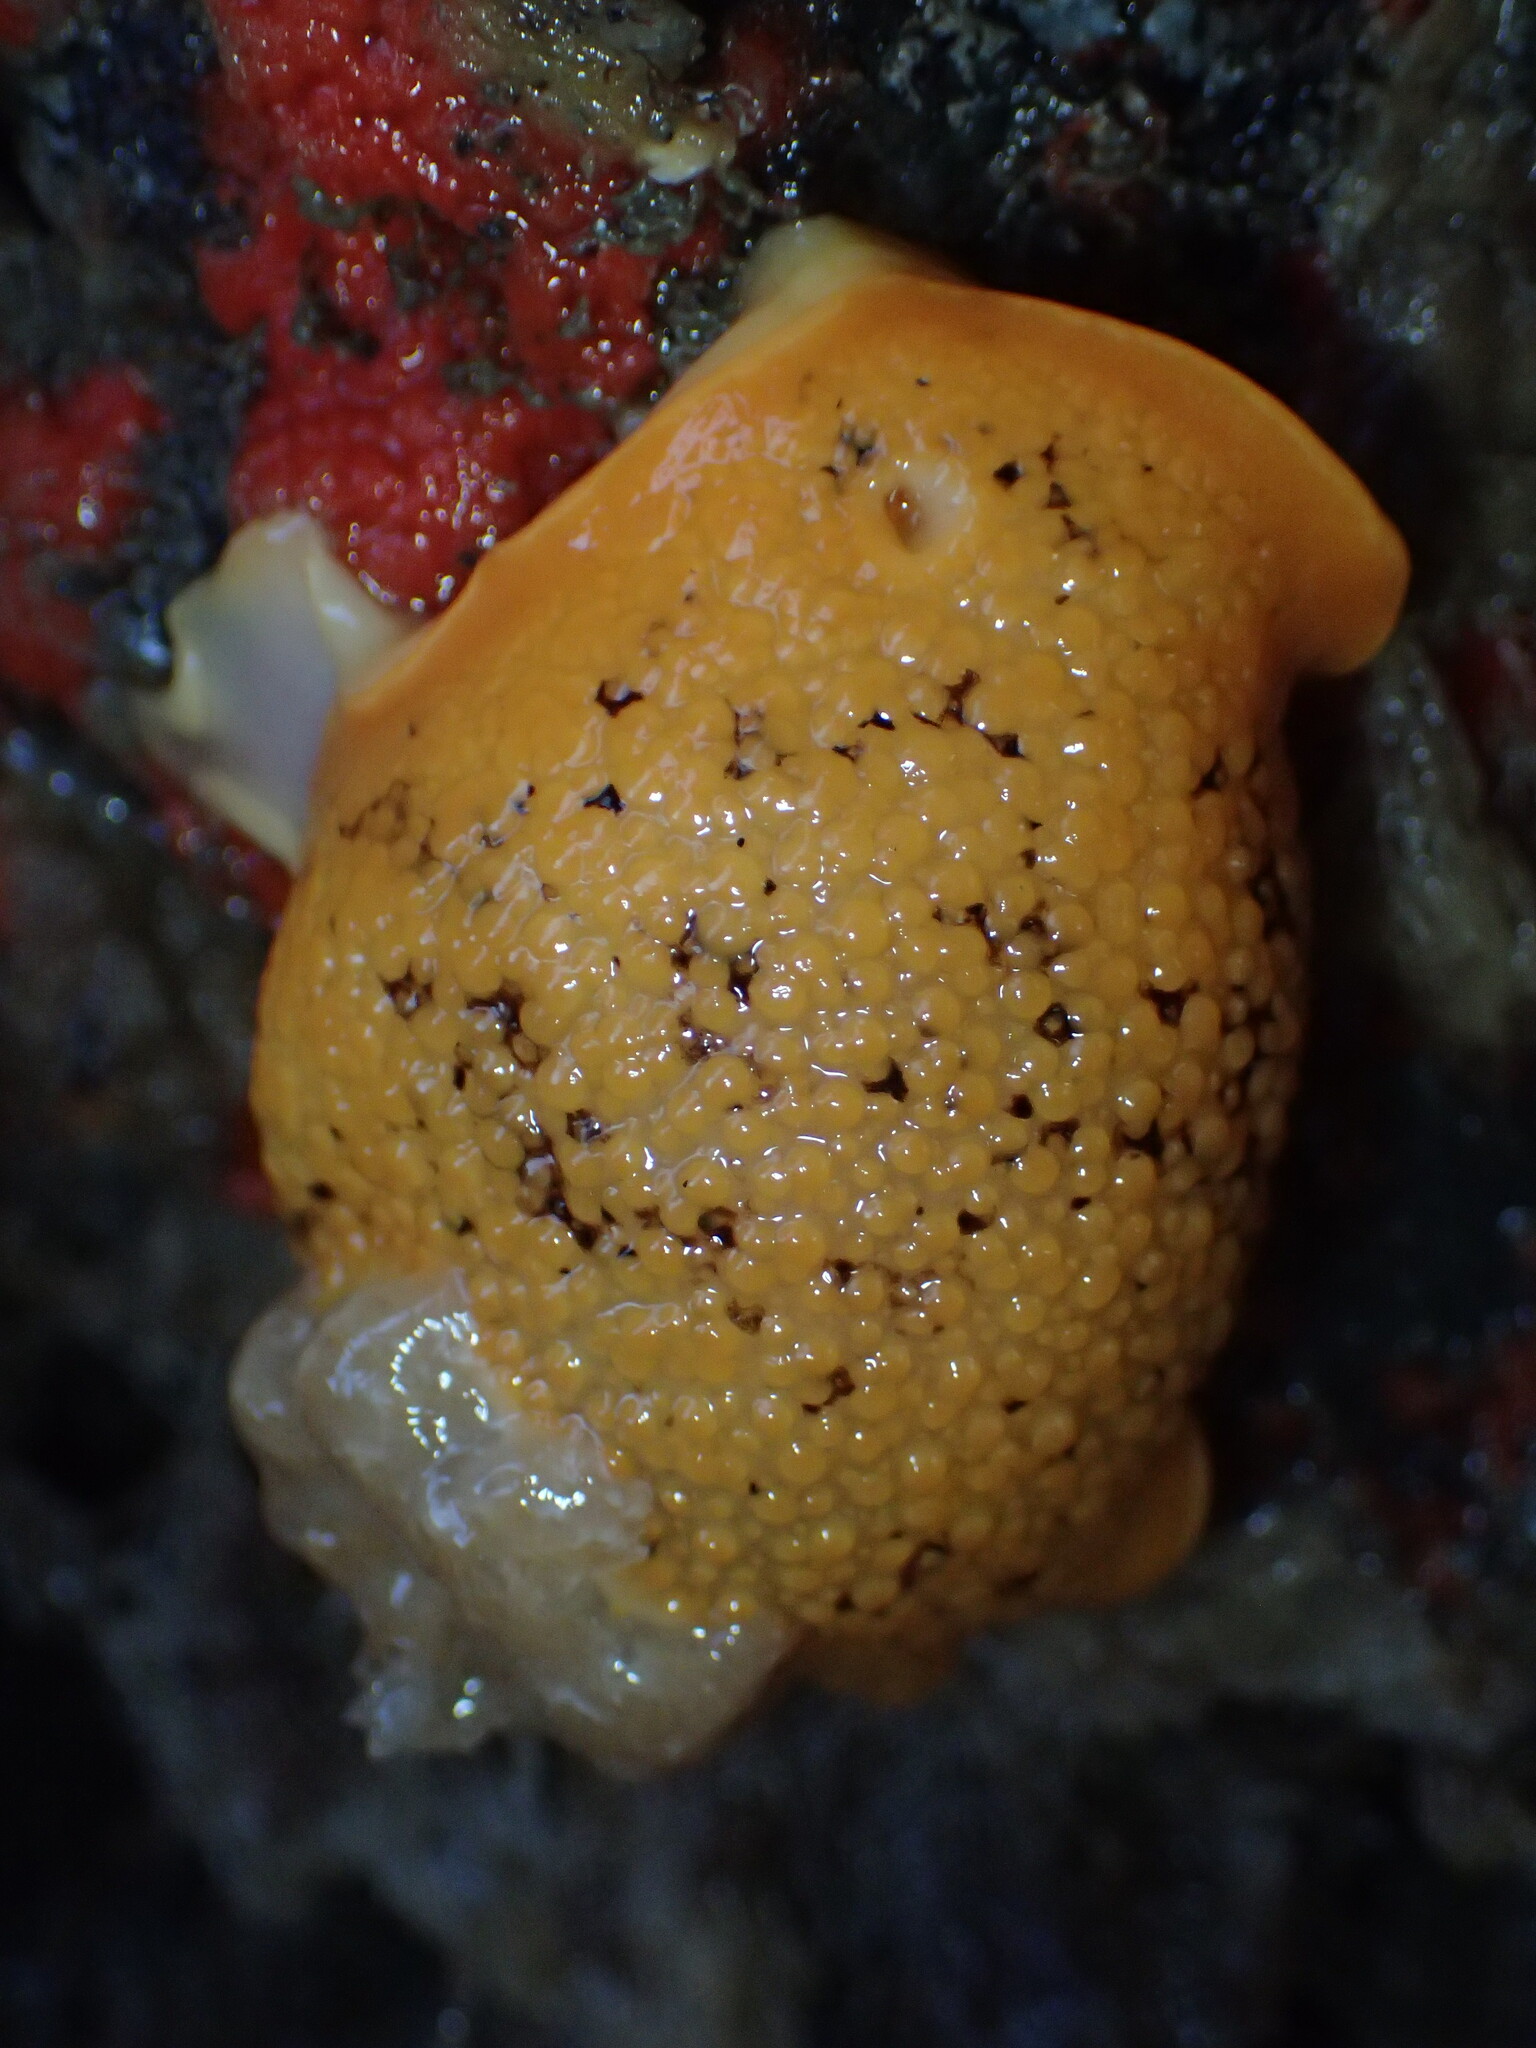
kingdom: Animalia
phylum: Mollusca
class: Gastropoda
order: Nudibranchia
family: Discodorididae
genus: Peltodoris
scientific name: Peltodoris nobilis
